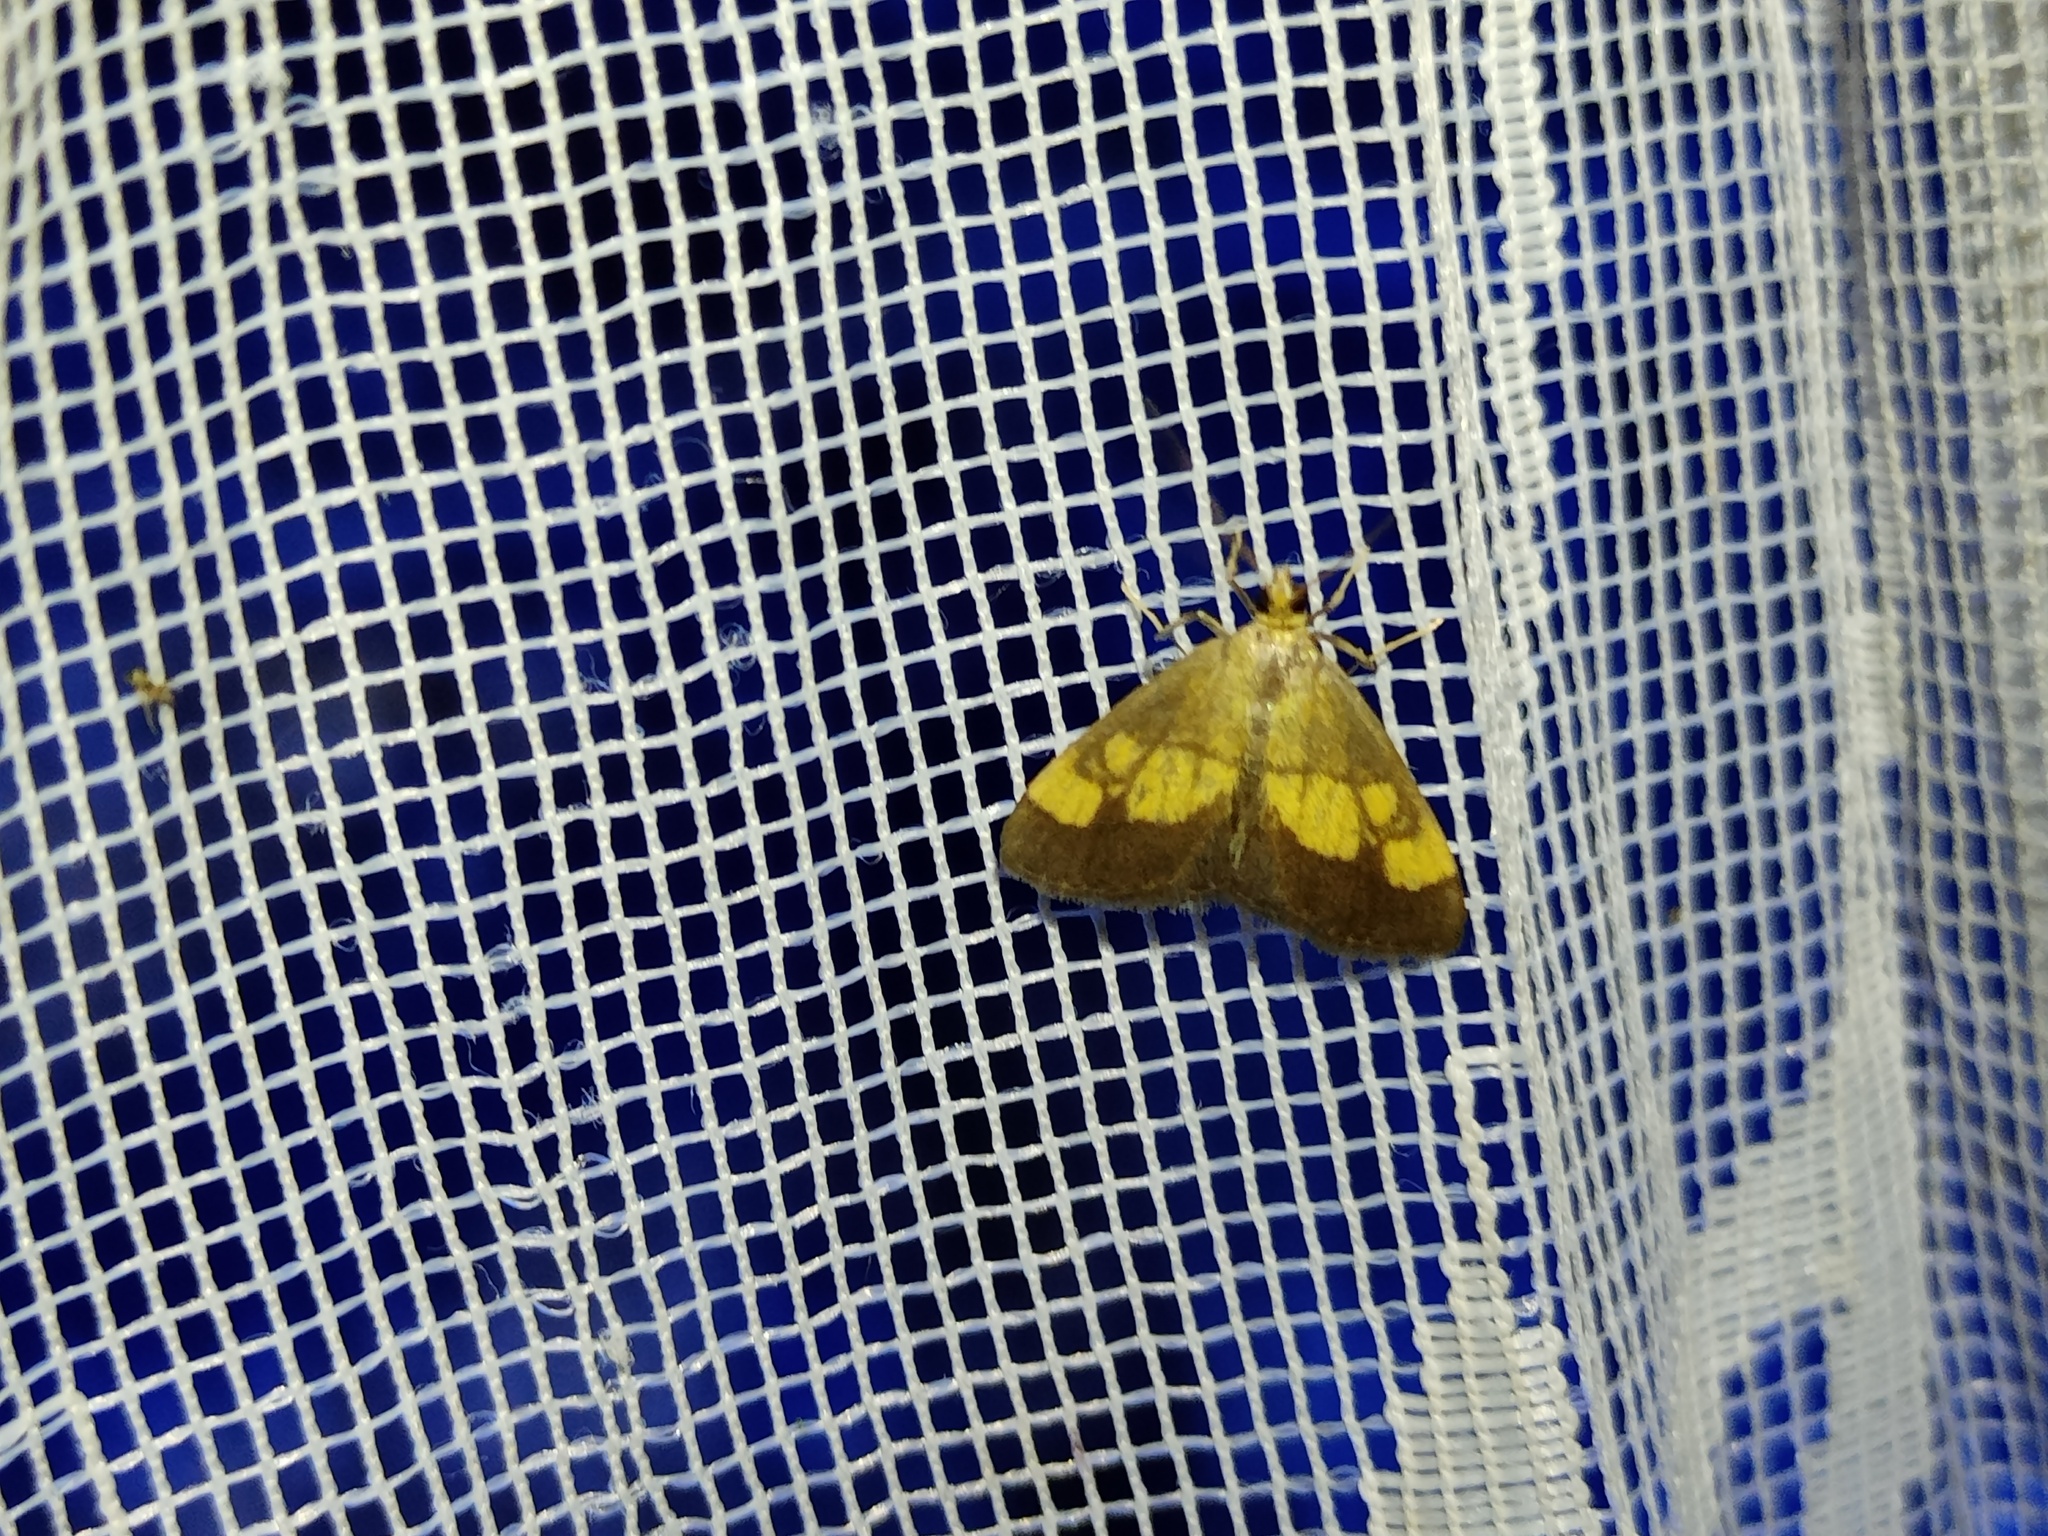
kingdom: Animalia
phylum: Arthropoda
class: Insecta
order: Lepidoptera
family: Crambidae
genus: Evergestis
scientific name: Evergestis limbata
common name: Dark bordered pearl
